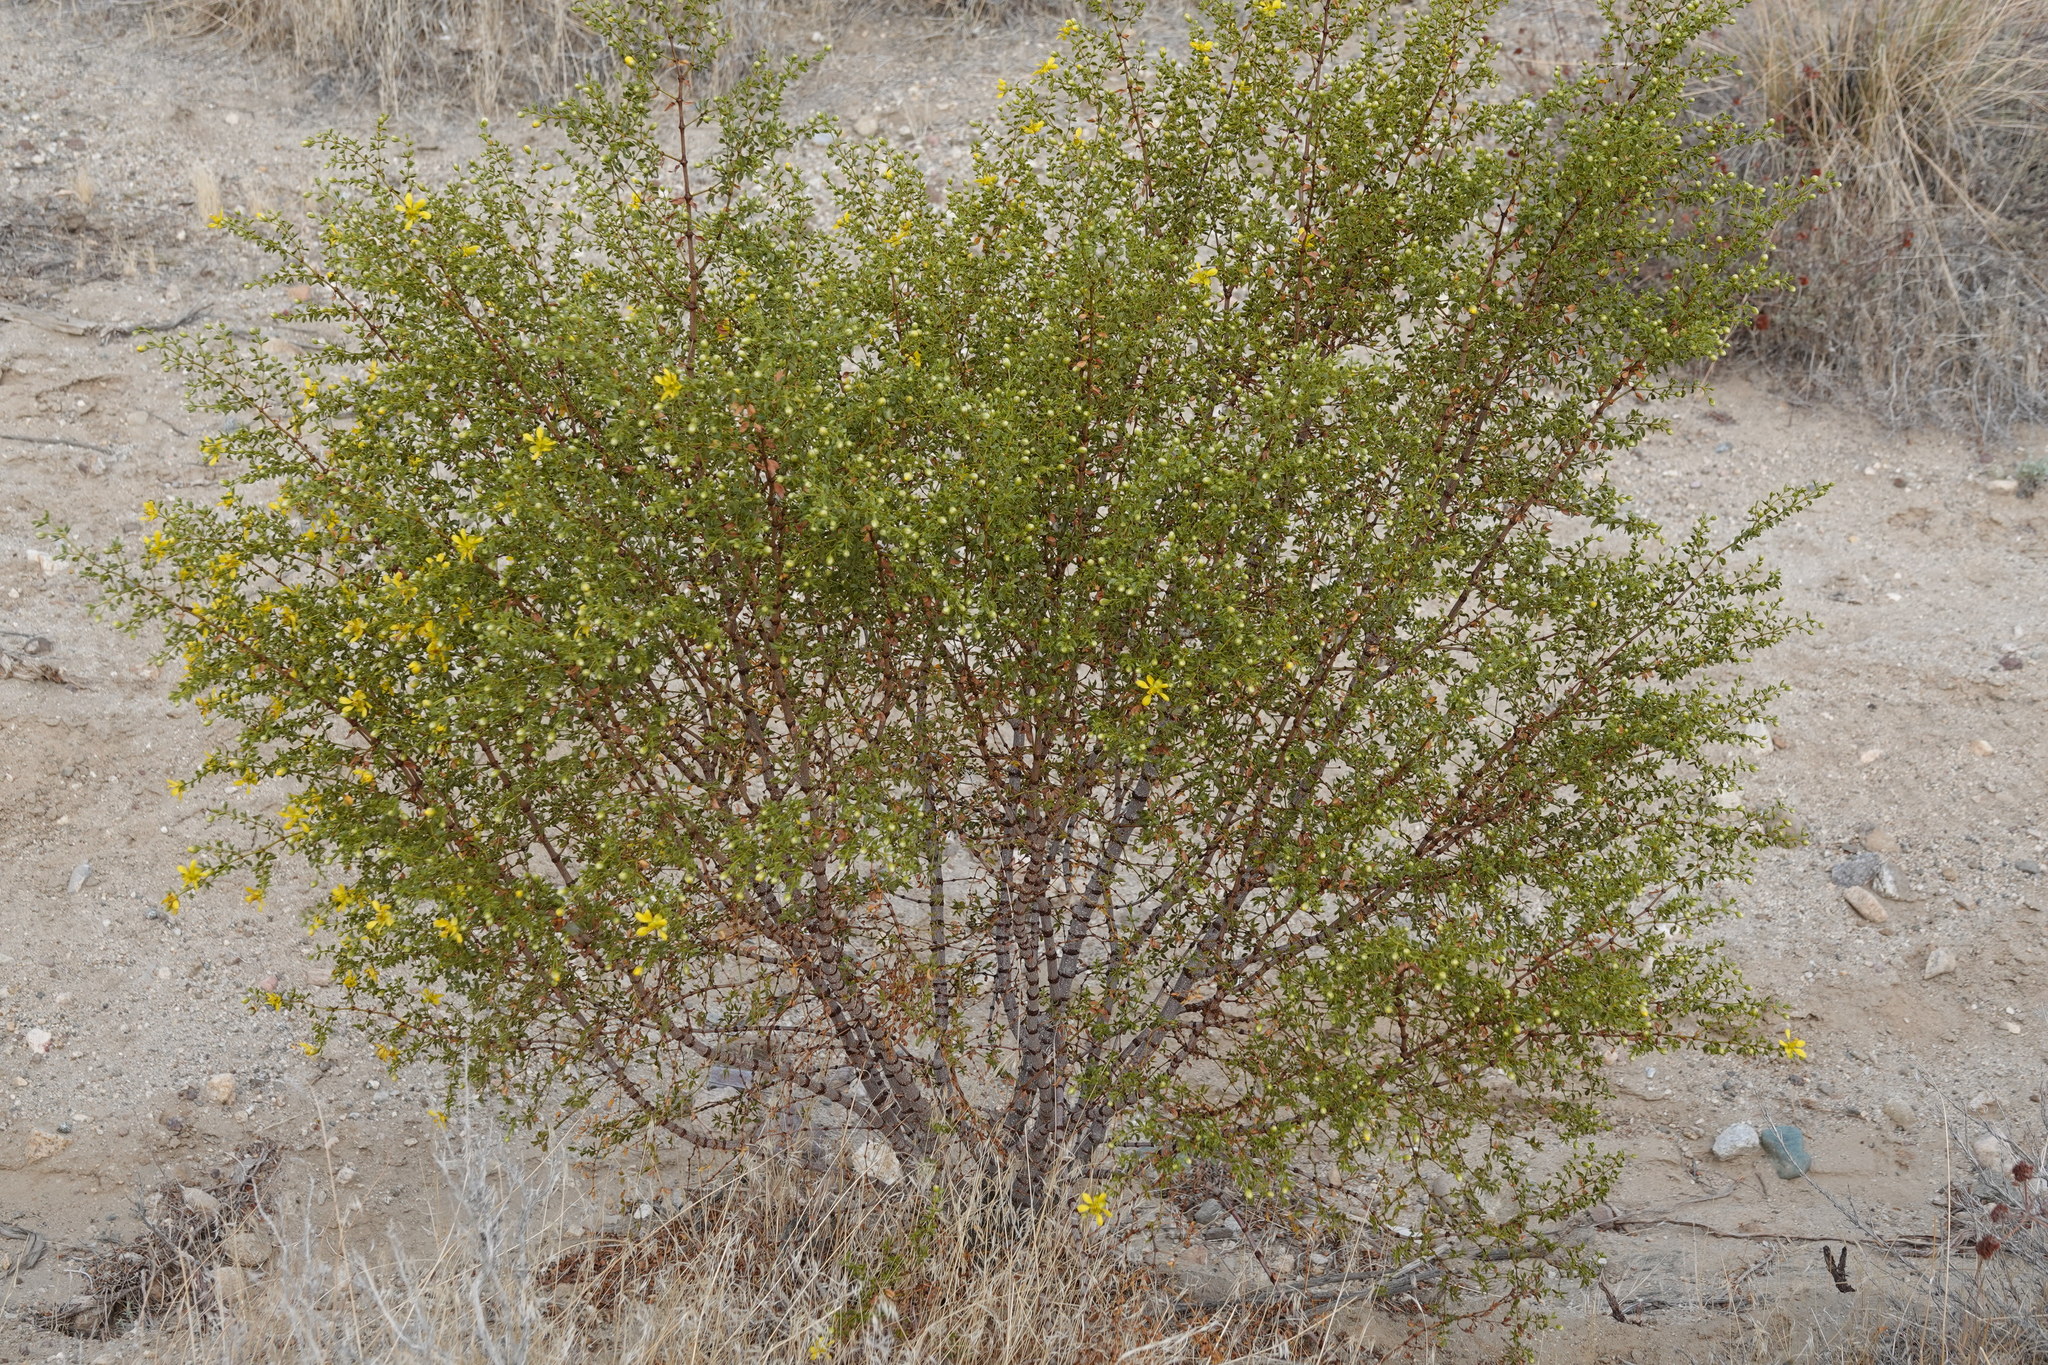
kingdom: Plantae
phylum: Tracheophyta
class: Magnoliopsida
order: Zygophyllales
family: Zygophyllaceae
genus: Larrea
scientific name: Larrea tridentata
